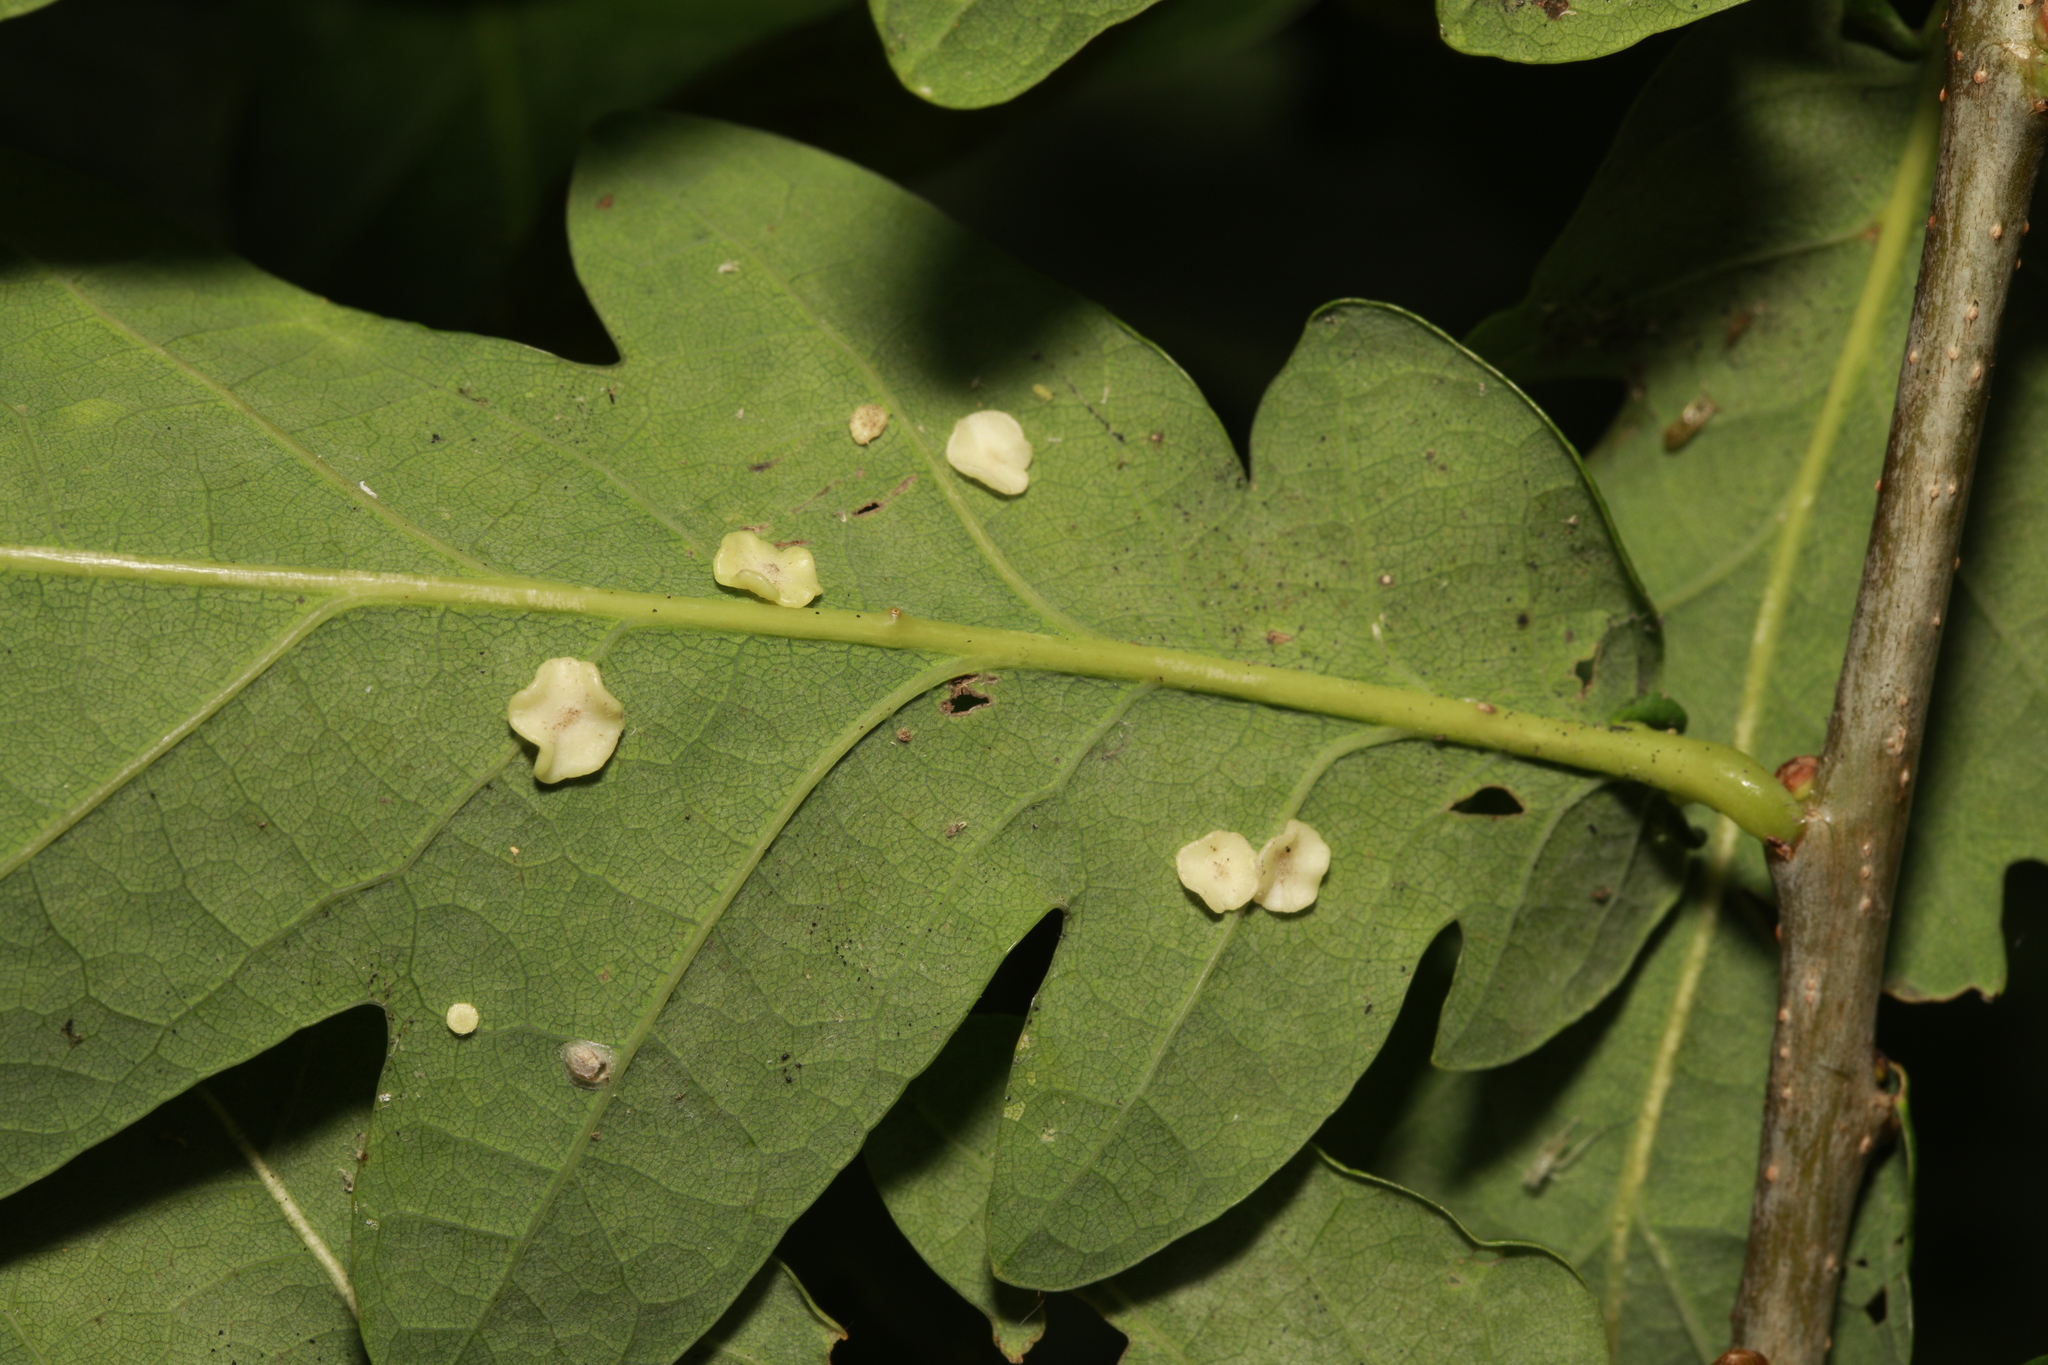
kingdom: Animalia
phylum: Arthropoda
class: Insecta
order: Hymenoptera
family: Cynipidae
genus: Neuroterus
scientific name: Neuroterus albipes
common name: Smooth spangle gall
